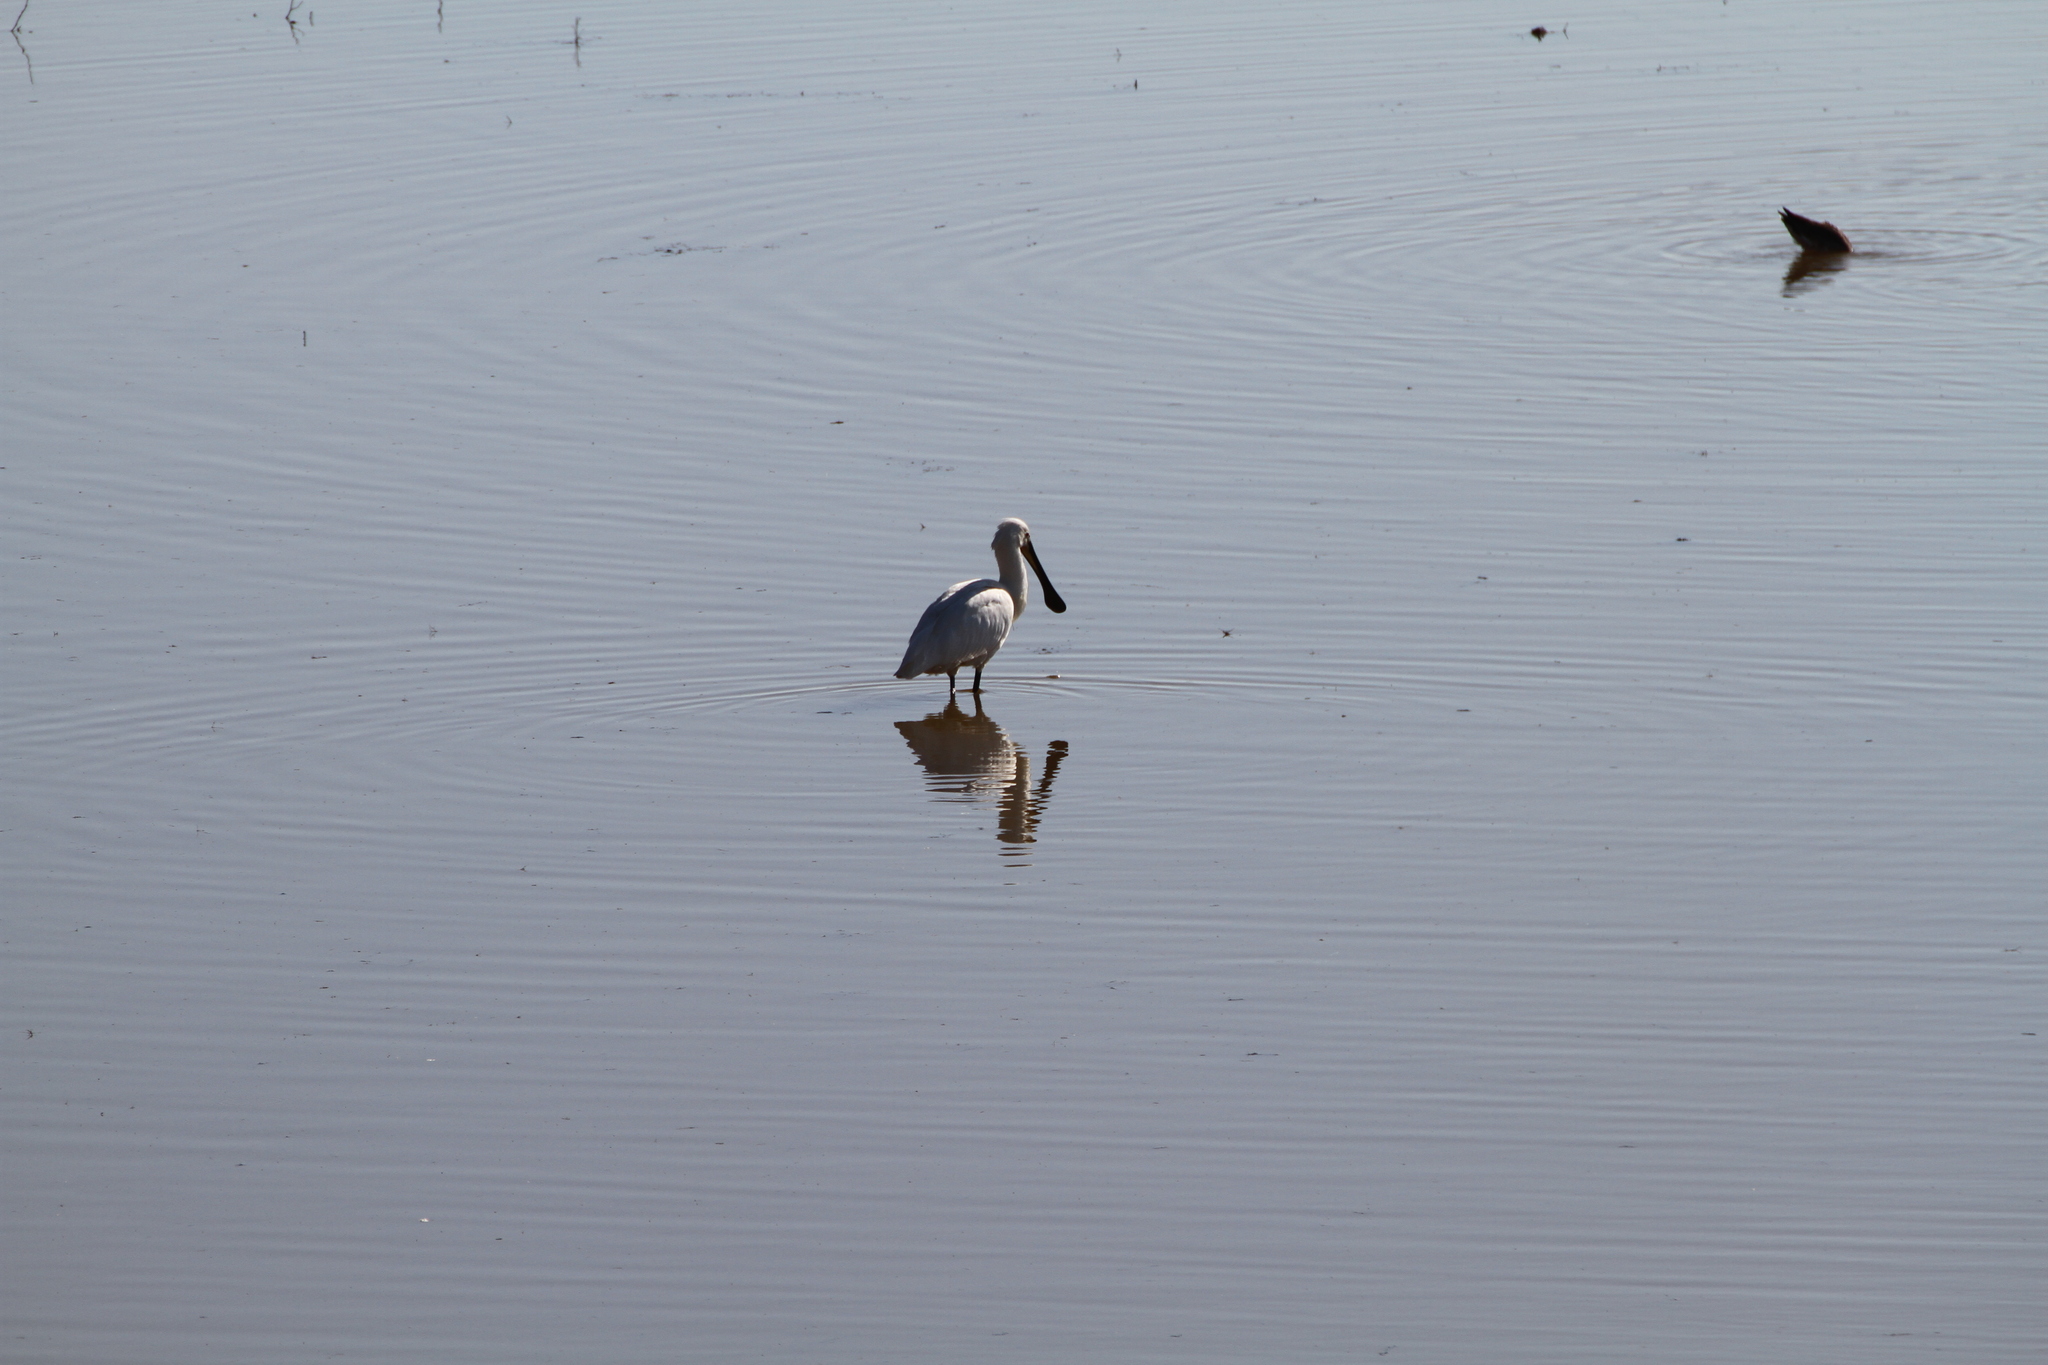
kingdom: Animalia
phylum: Chordata
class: Aves
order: Pelecaniformes
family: Threskiornithidae
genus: Platalea
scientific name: Platalea leucorodia
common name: Eurasian spoonbill
